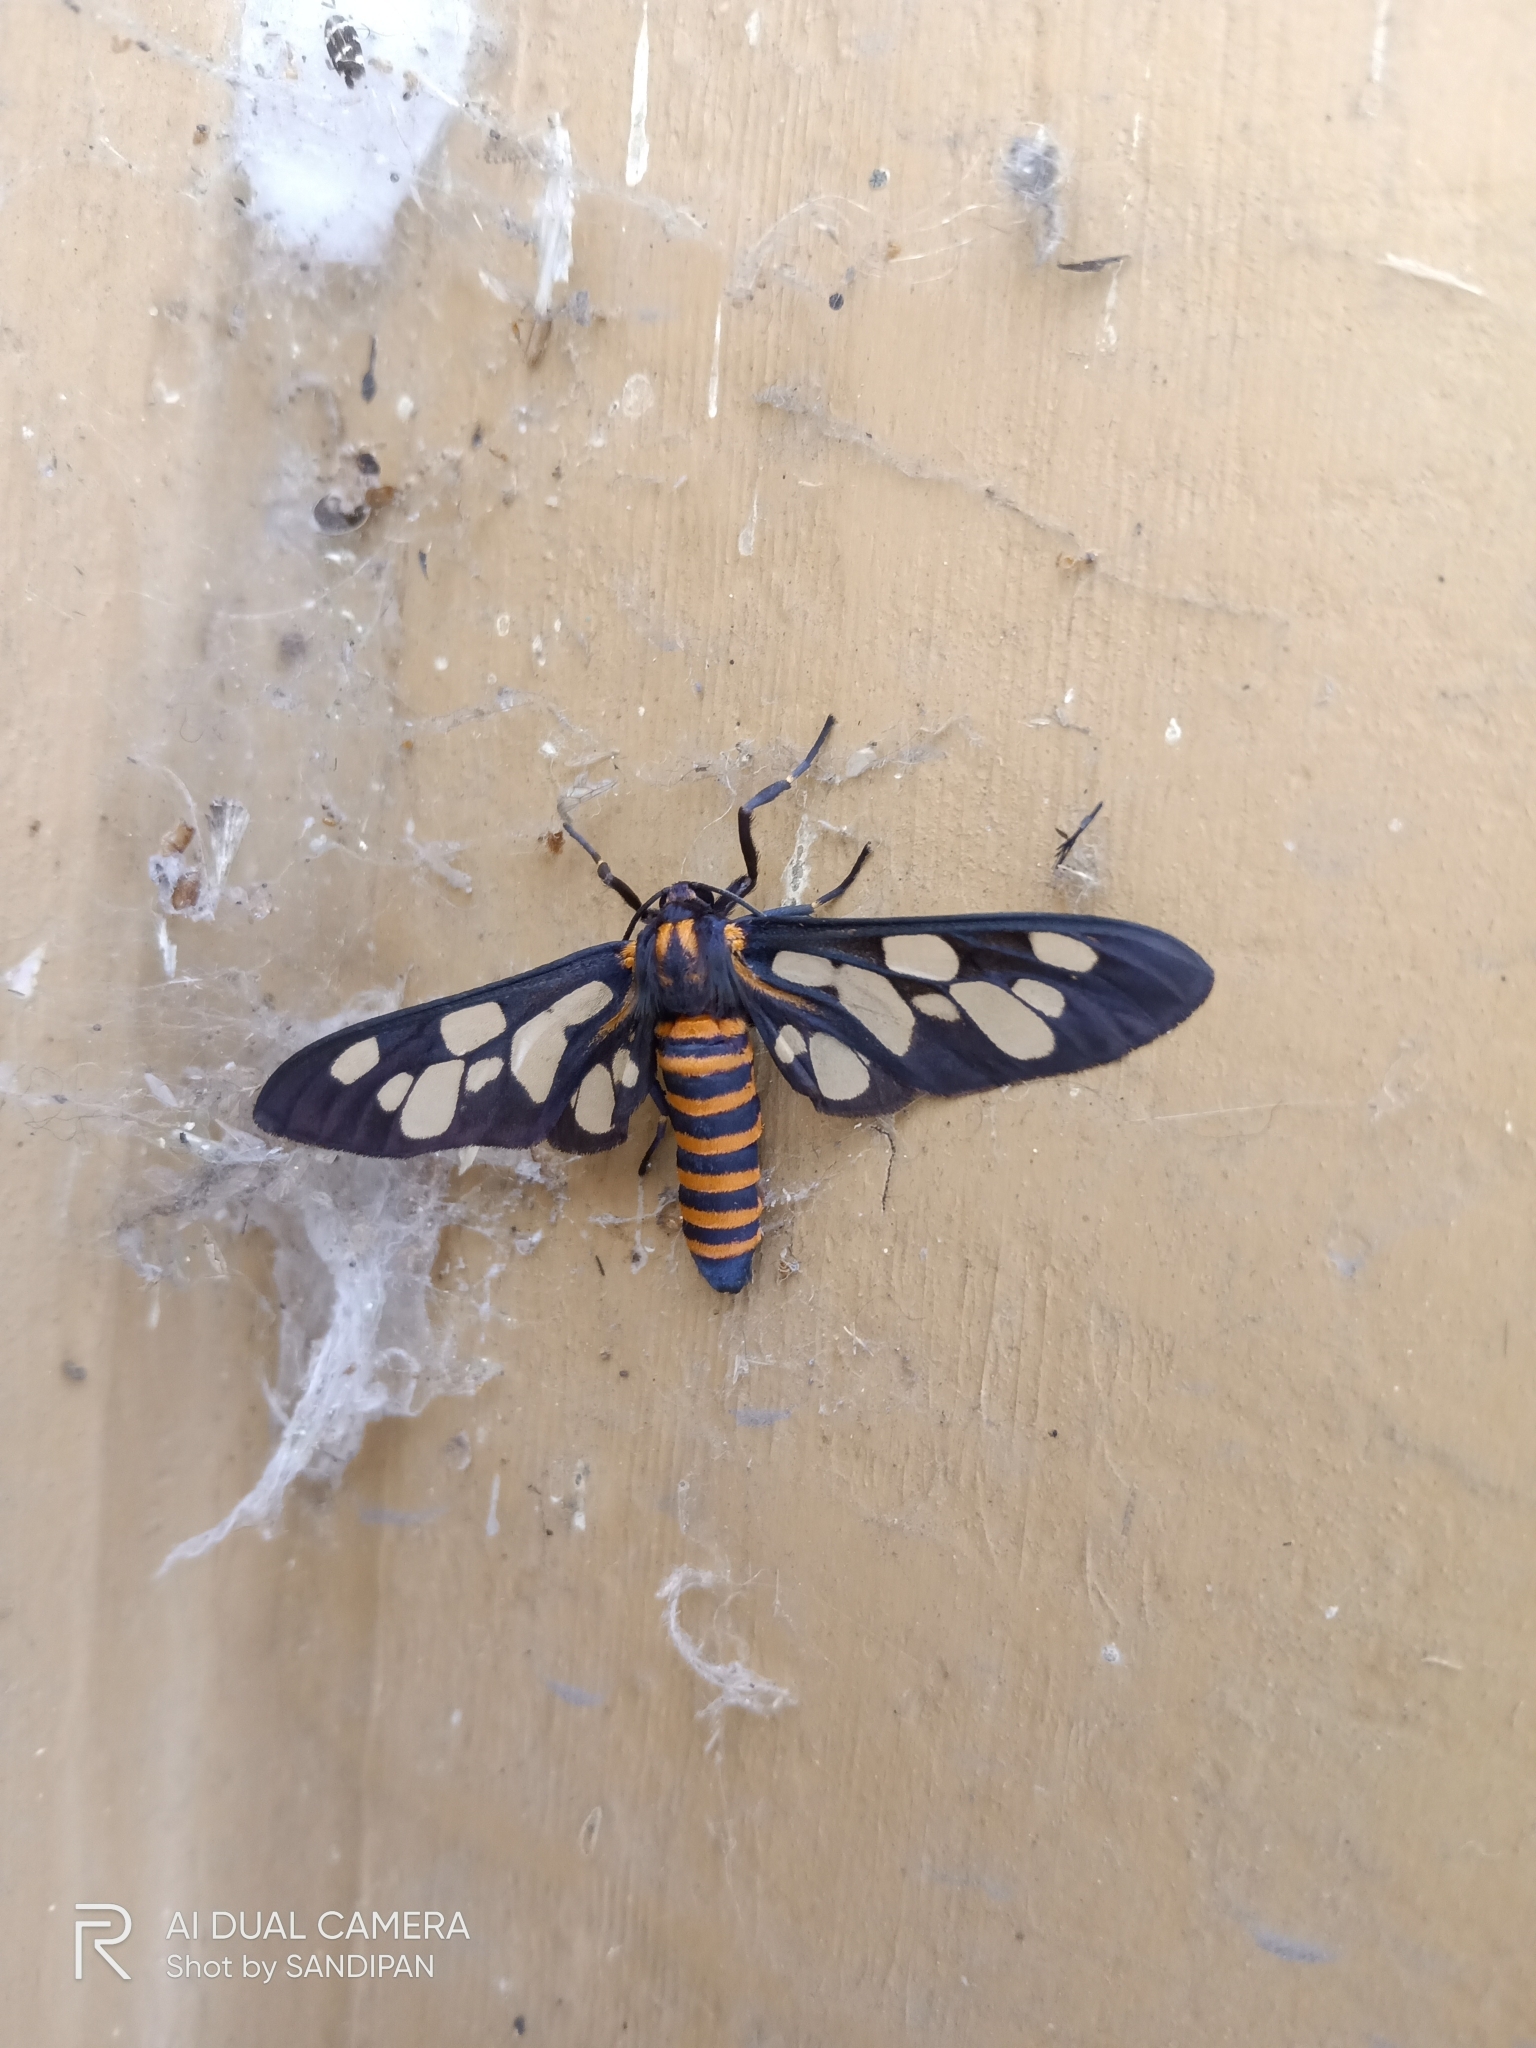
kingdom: Animalia
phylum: Arthropoda
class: Insecta
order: Lepidoptera
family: Erebidae
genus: Amata
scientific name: Amata passalis
